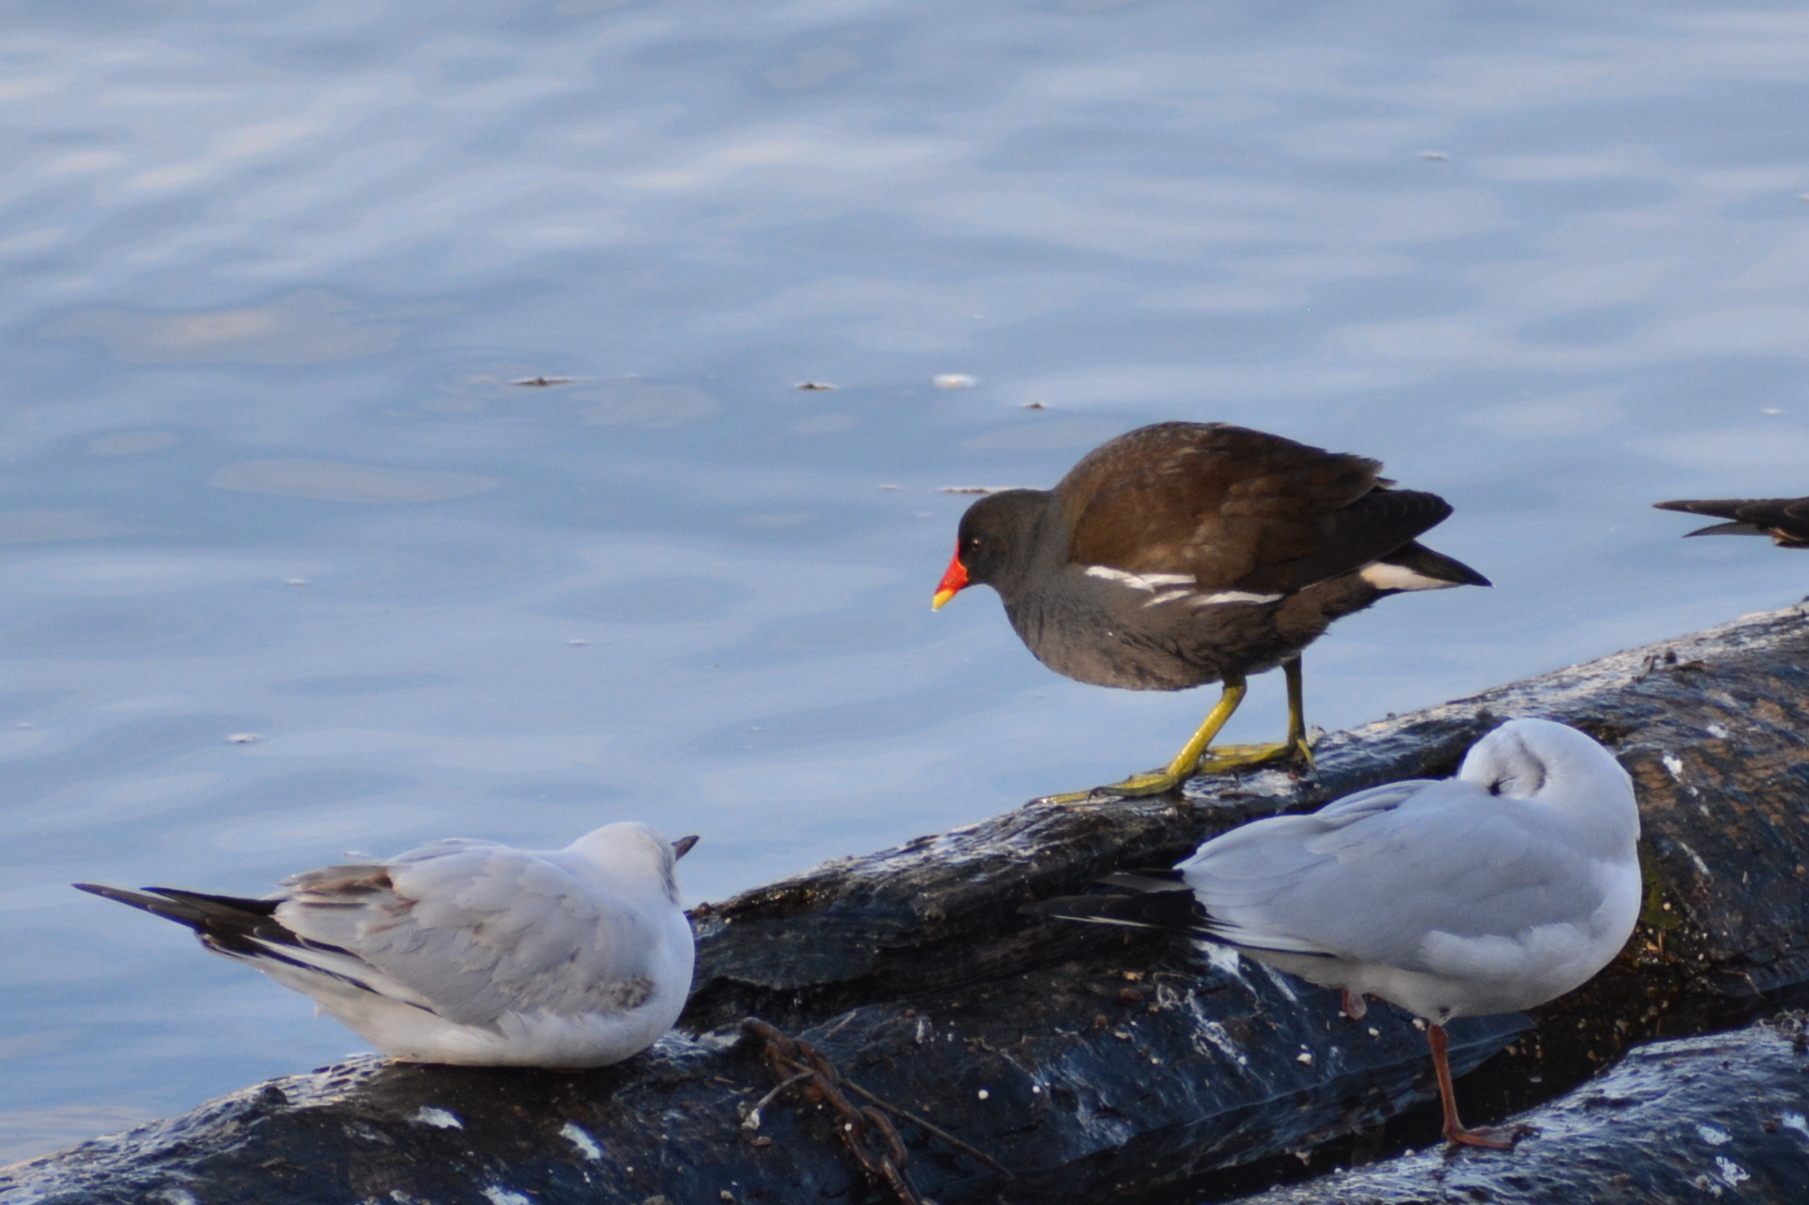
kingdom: Animalia
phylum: Chordata
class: Aves
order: Gruiformes
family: Rallidae
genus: Gallinula
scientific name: Gallinula chloropus
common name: Common moorhen
